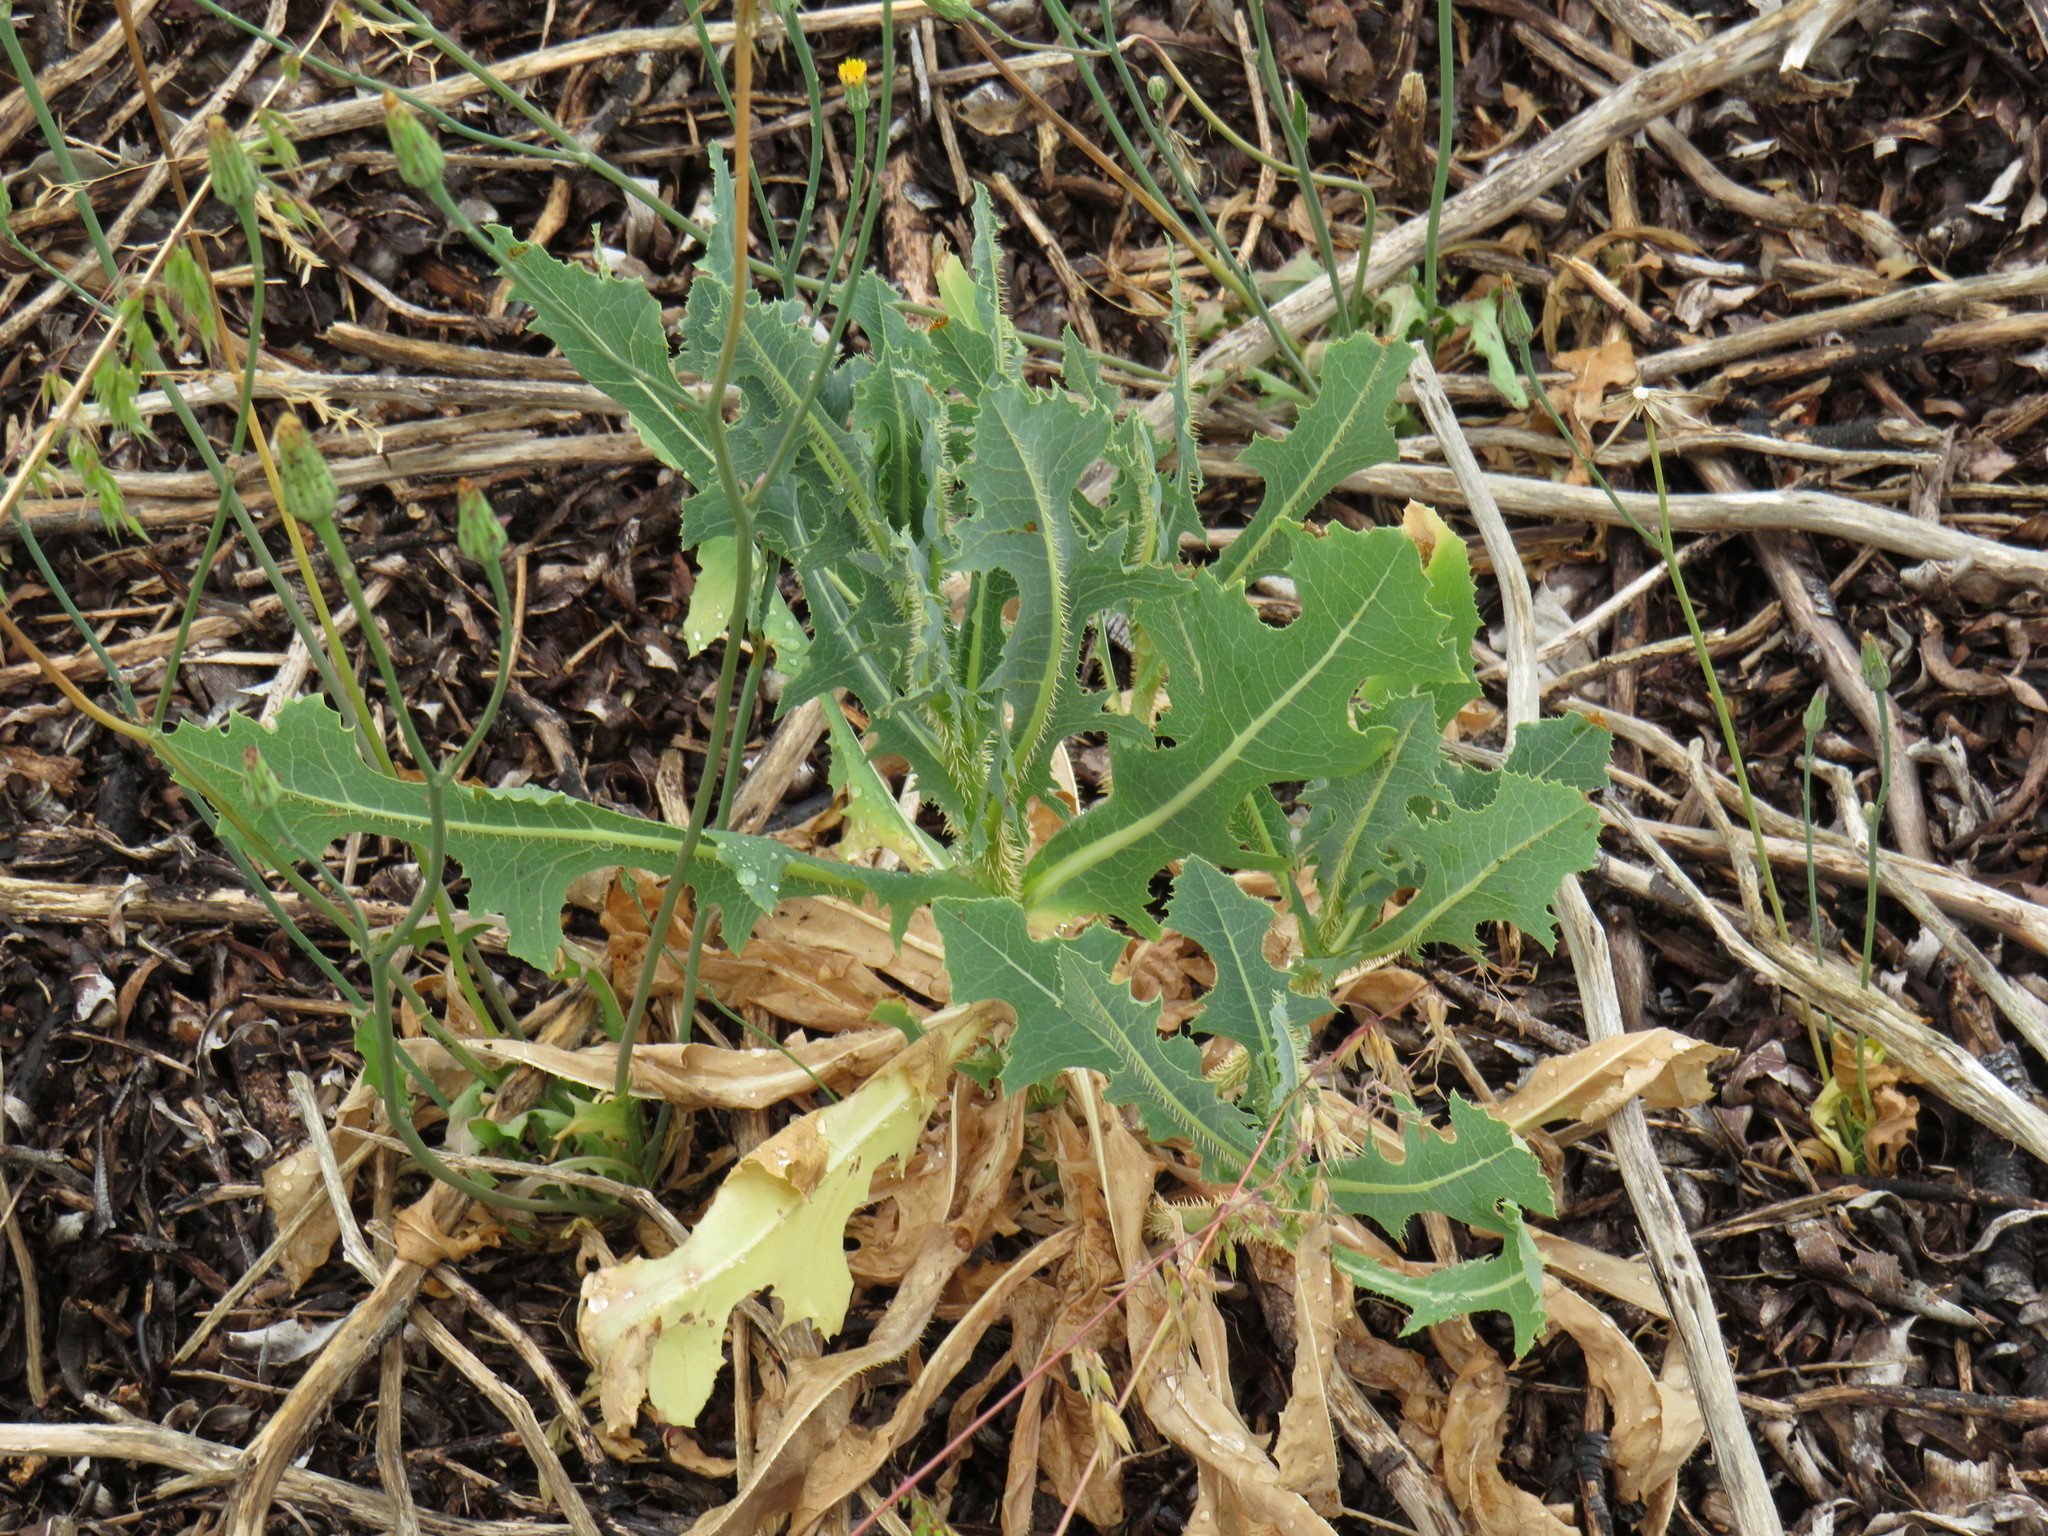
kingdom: Plantae
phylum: Tracheophyta
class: Magnoliopsida
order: Asterales
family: Asteraceae
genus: Lactuca
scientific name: Lactuca serriola
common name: Prickly lettuce
